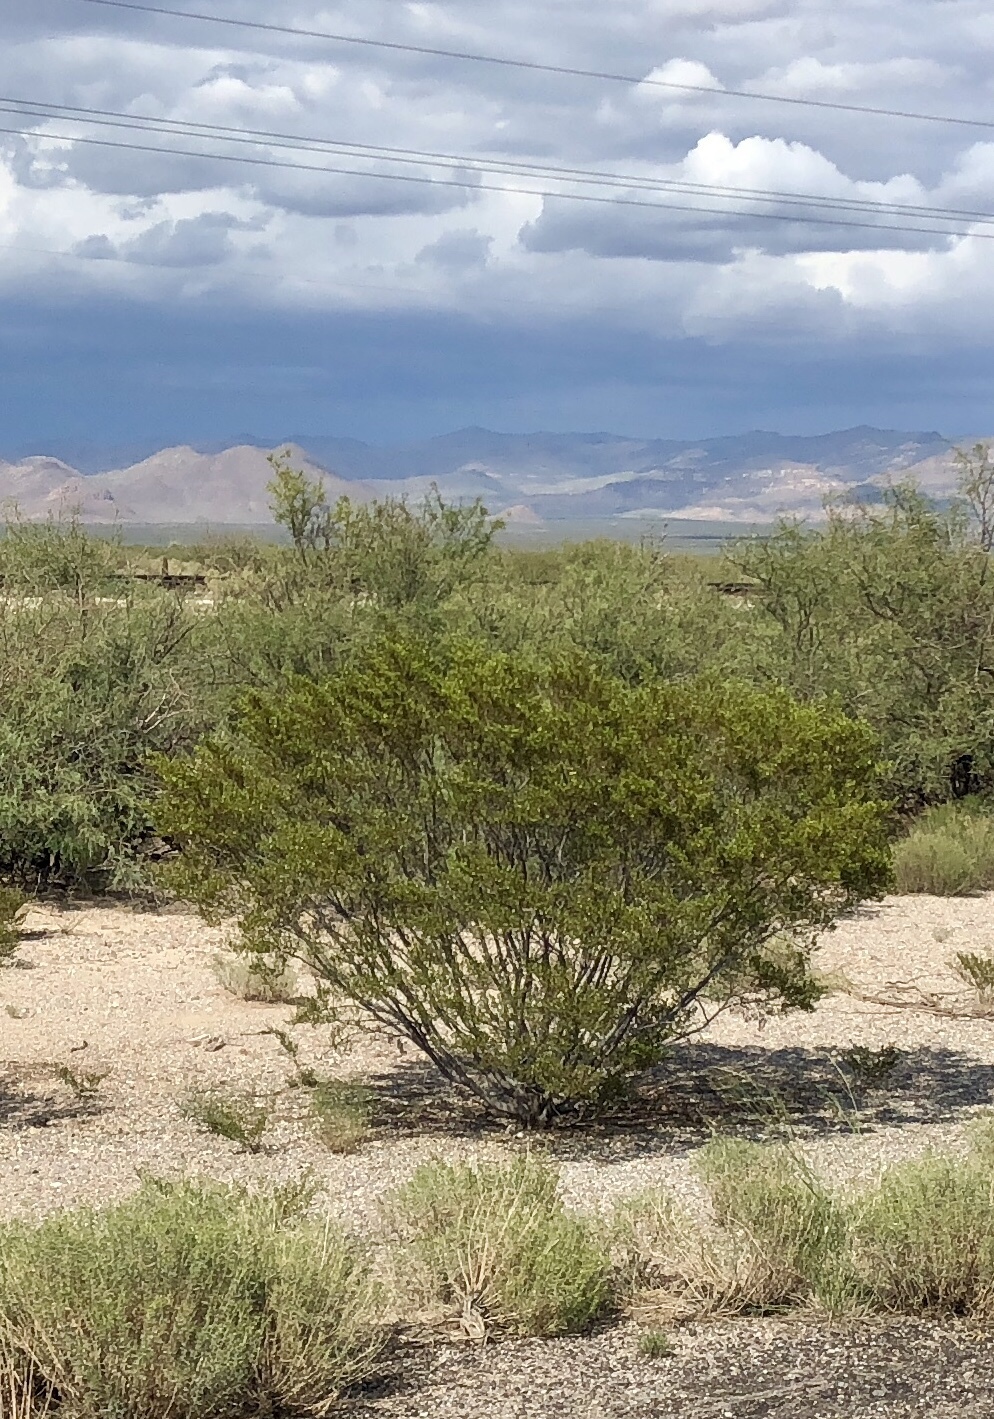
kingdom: Plantae
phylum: Tracheophyta
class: Magnoliopsida
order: Zygophyllales
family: Zygophyllaceae
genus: Larrea
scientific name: Larrea tridentata
